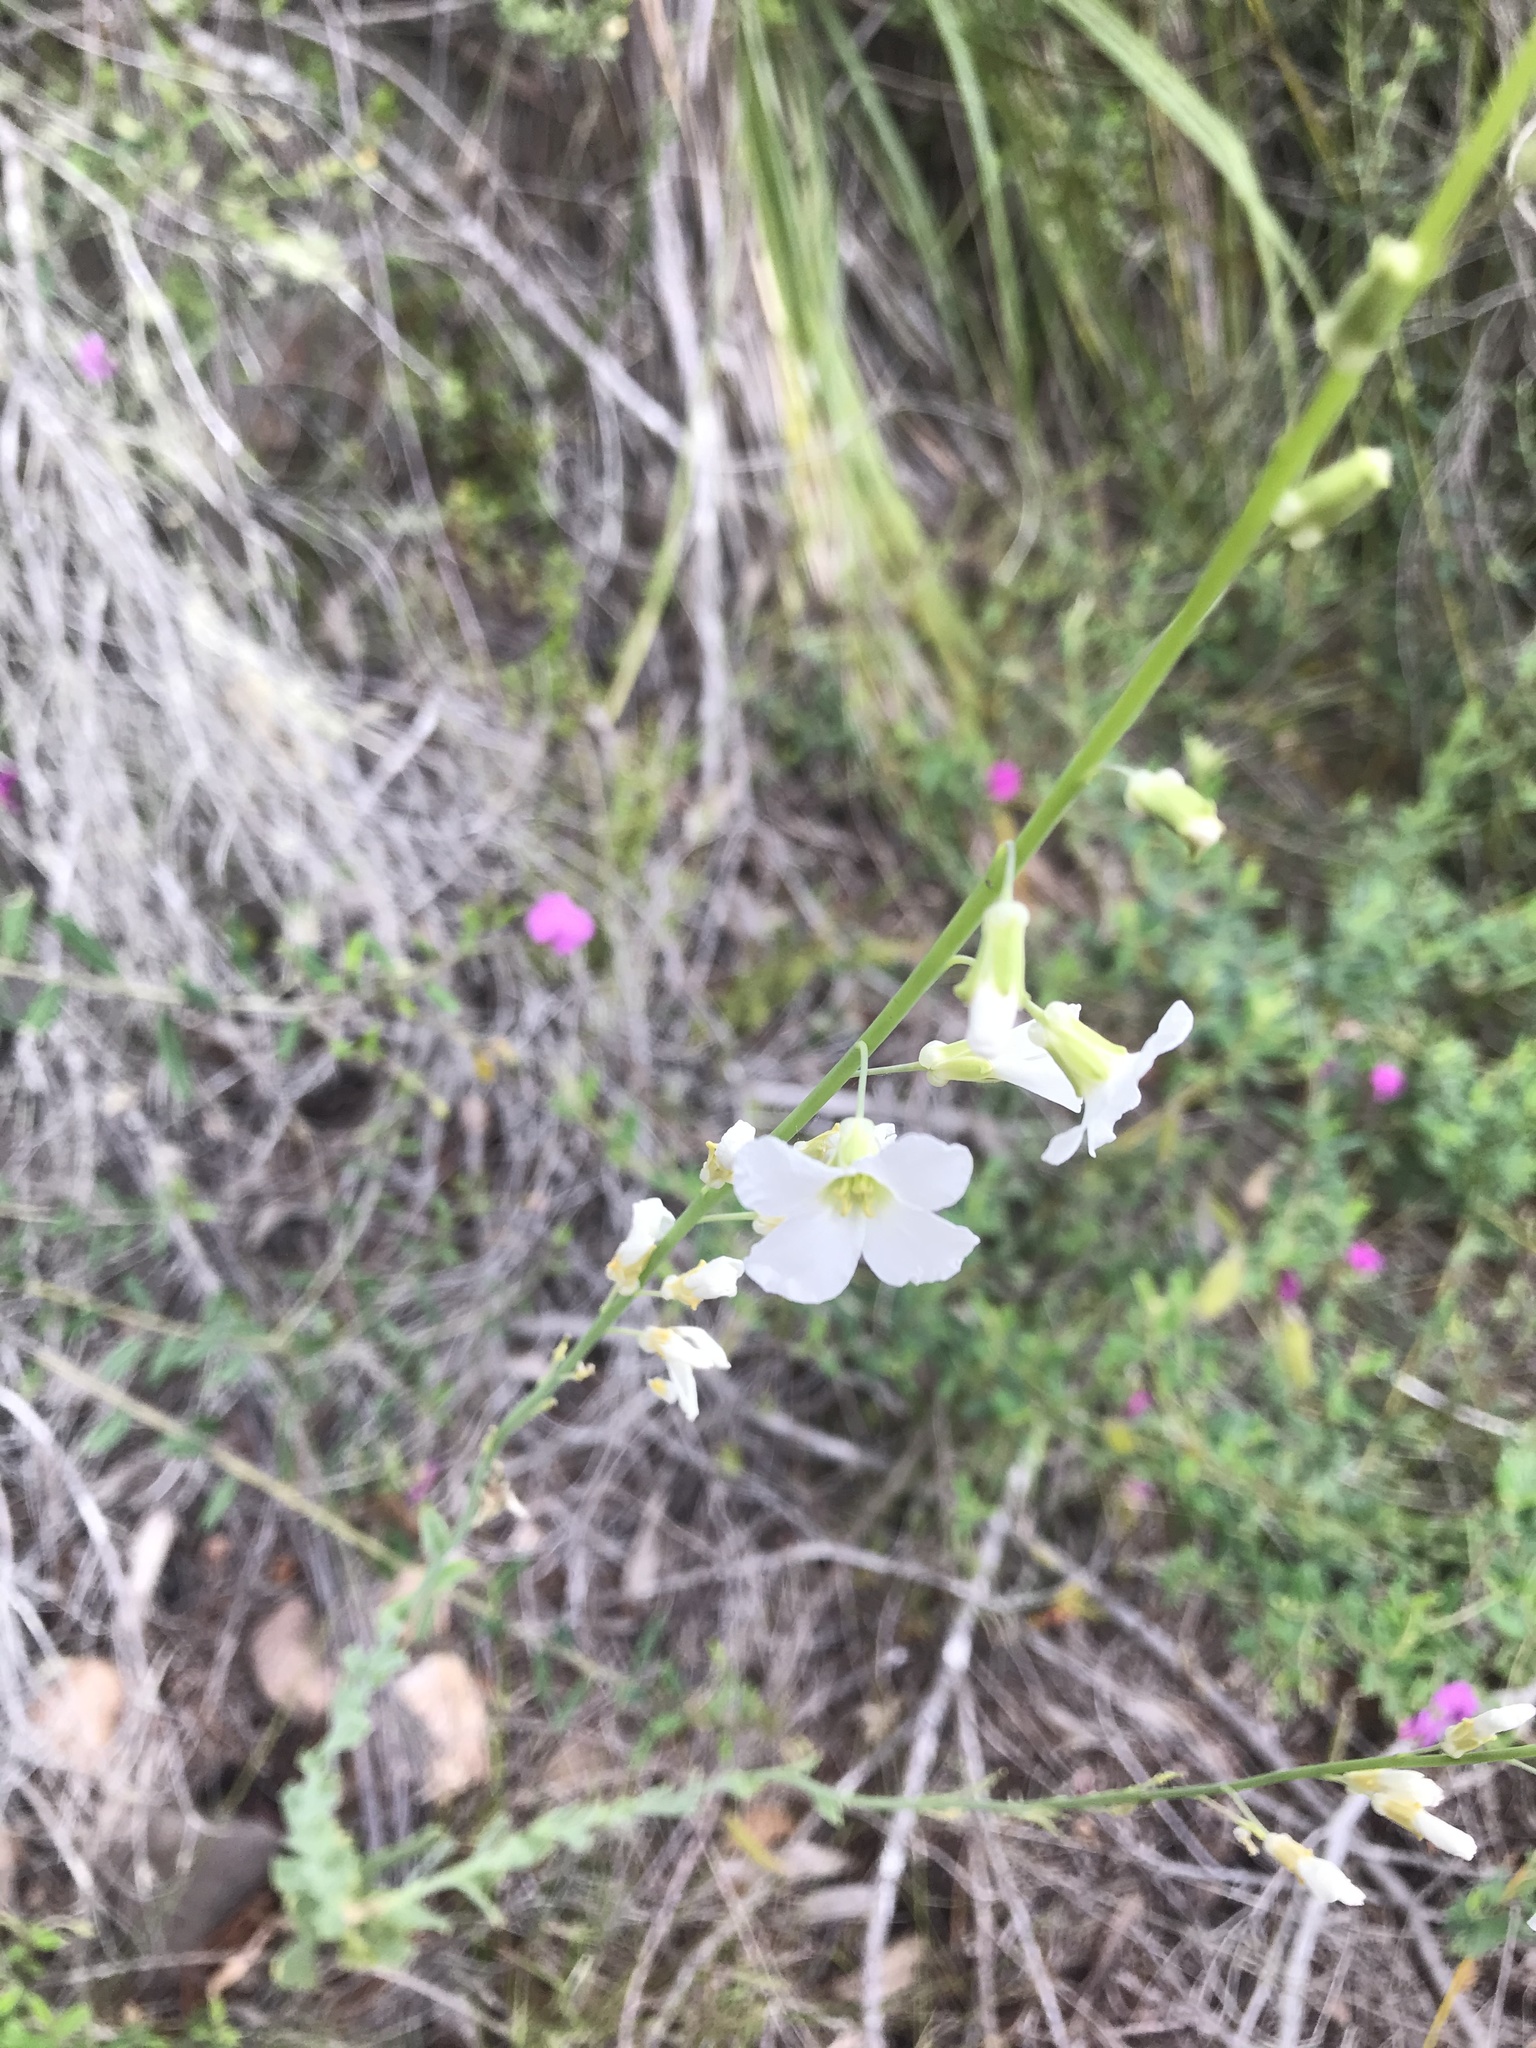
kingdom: Plantae
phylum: Tracheophyta
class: Magnoliopsida
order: Brassicales
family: Brassicaceae
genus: Heliophila
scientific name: Heliophila glauca
